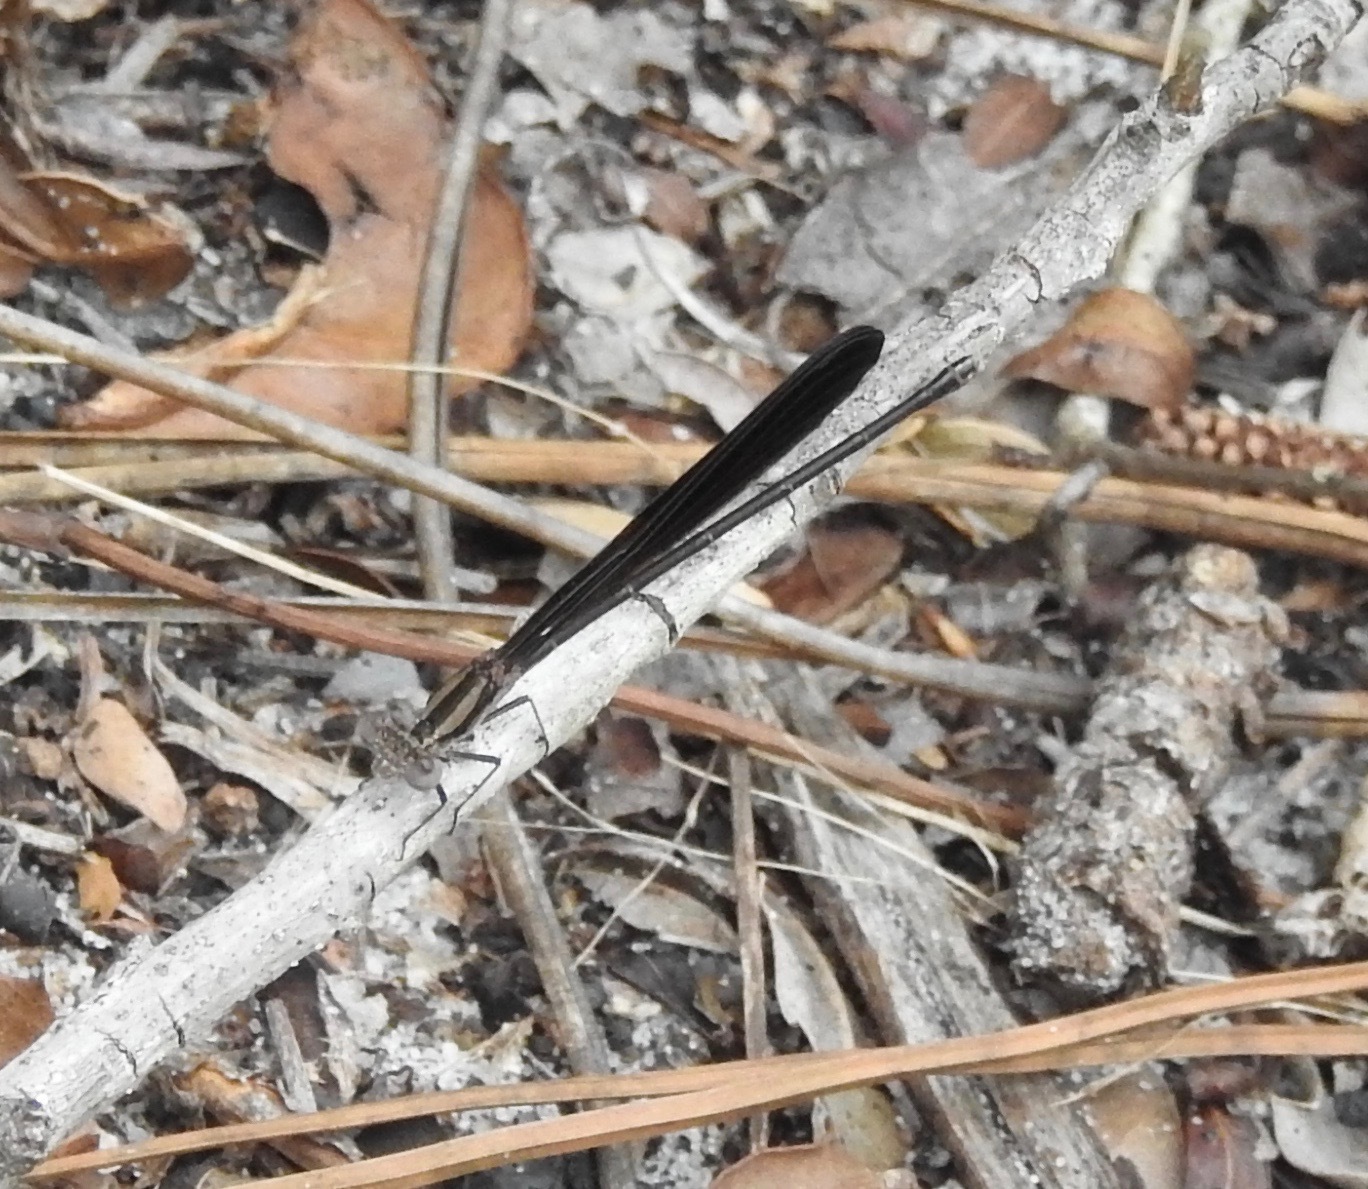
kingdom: Animalia
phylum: Arthropoda
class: Insecta
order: Odonata
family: Coenagrionidae
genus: Argia
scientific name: Argia fumipennis
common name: Variable dancer
